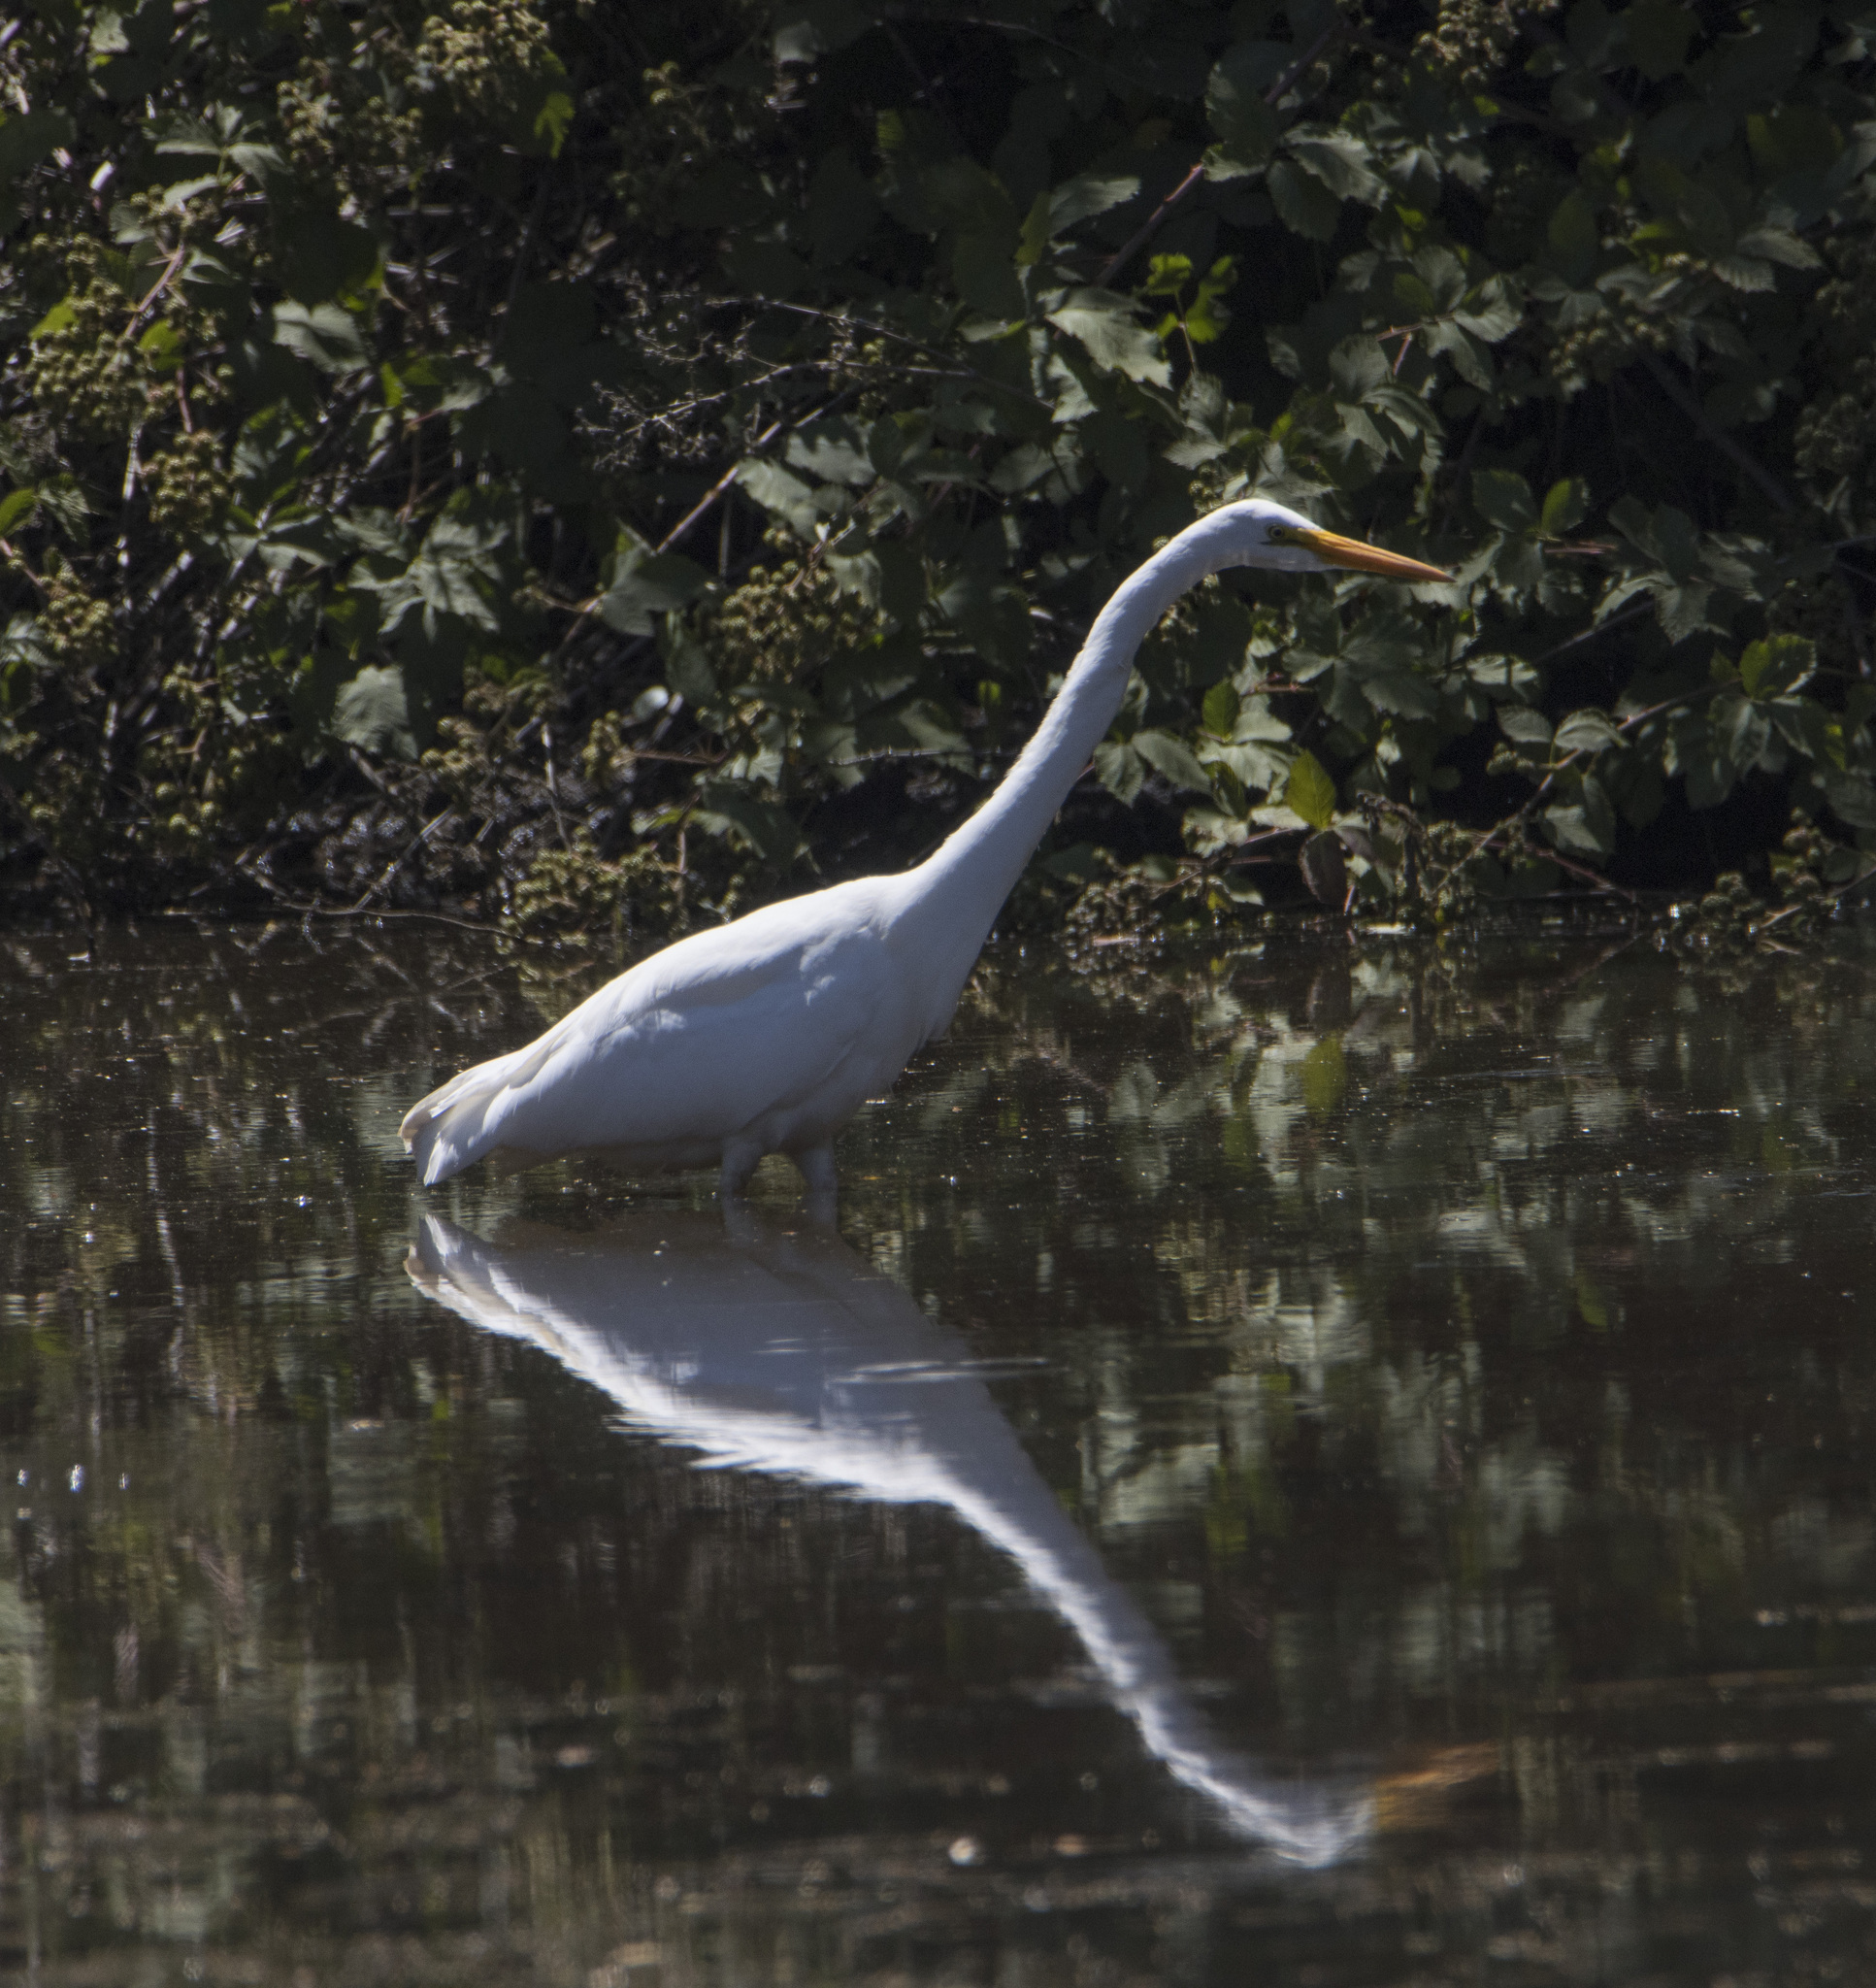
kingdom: Animalia
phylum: Chordata
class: Aves
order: Pelecaniformes
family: Ardeidae
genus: Ardea
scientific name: Ardea alba
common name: Great egret
